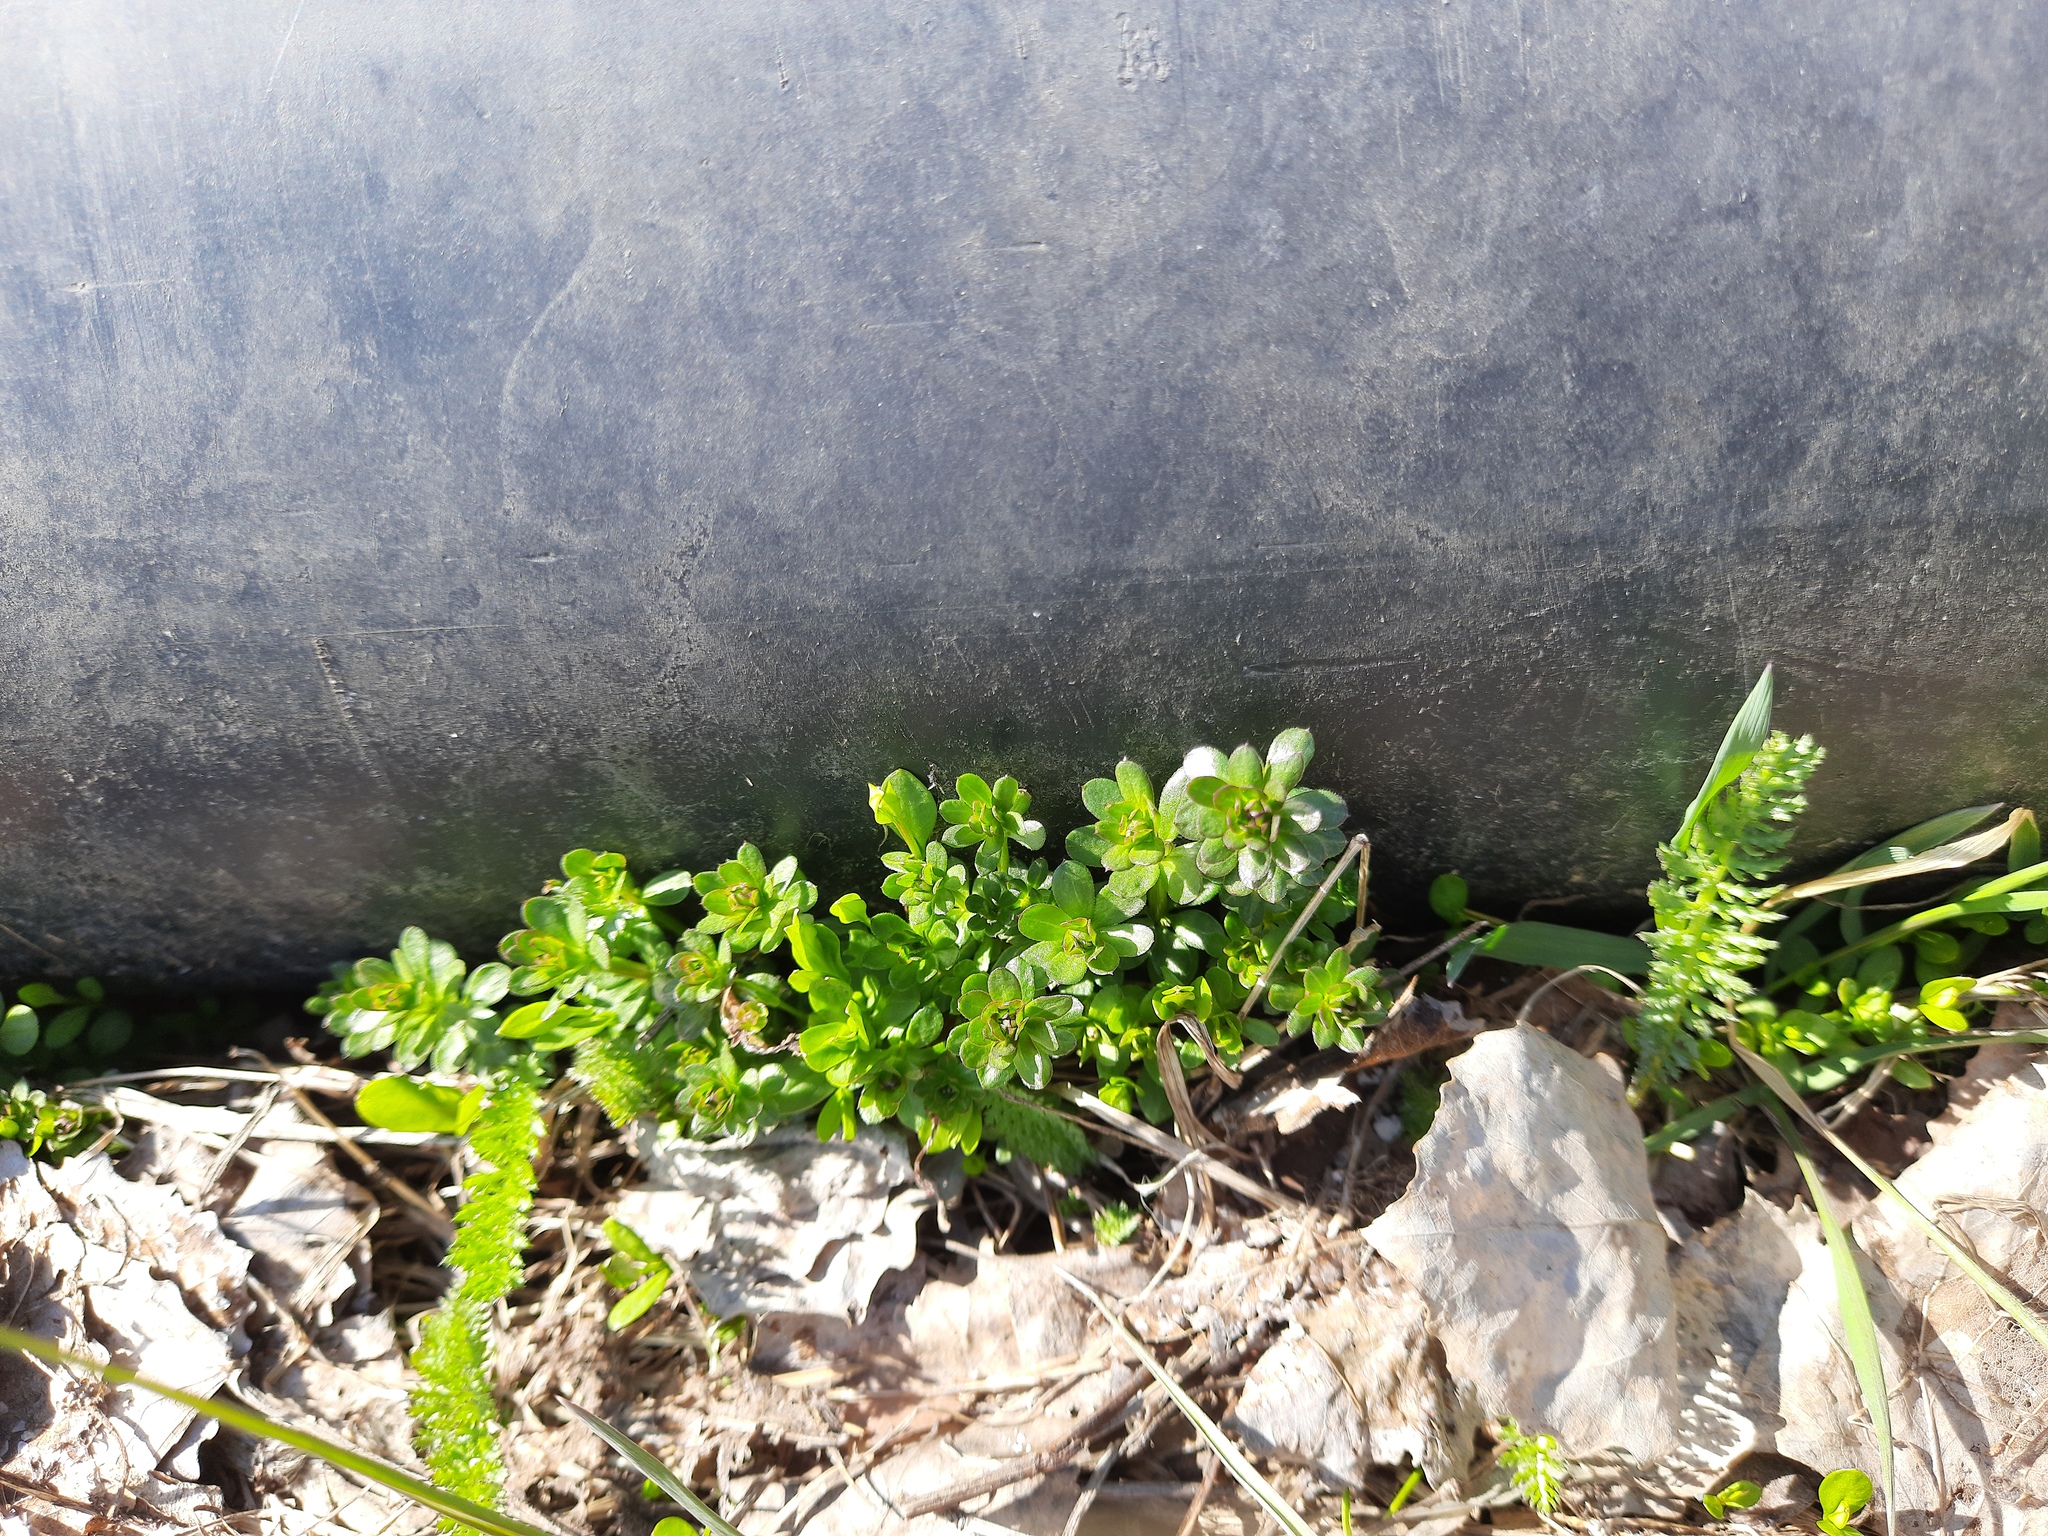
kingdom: Plantae
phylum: Tracheophyta
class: Magnoliopsida
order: Gentianales
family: Rubiaceae
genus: Galium
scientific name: Galium mollugo
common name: Hedge bedstraw
